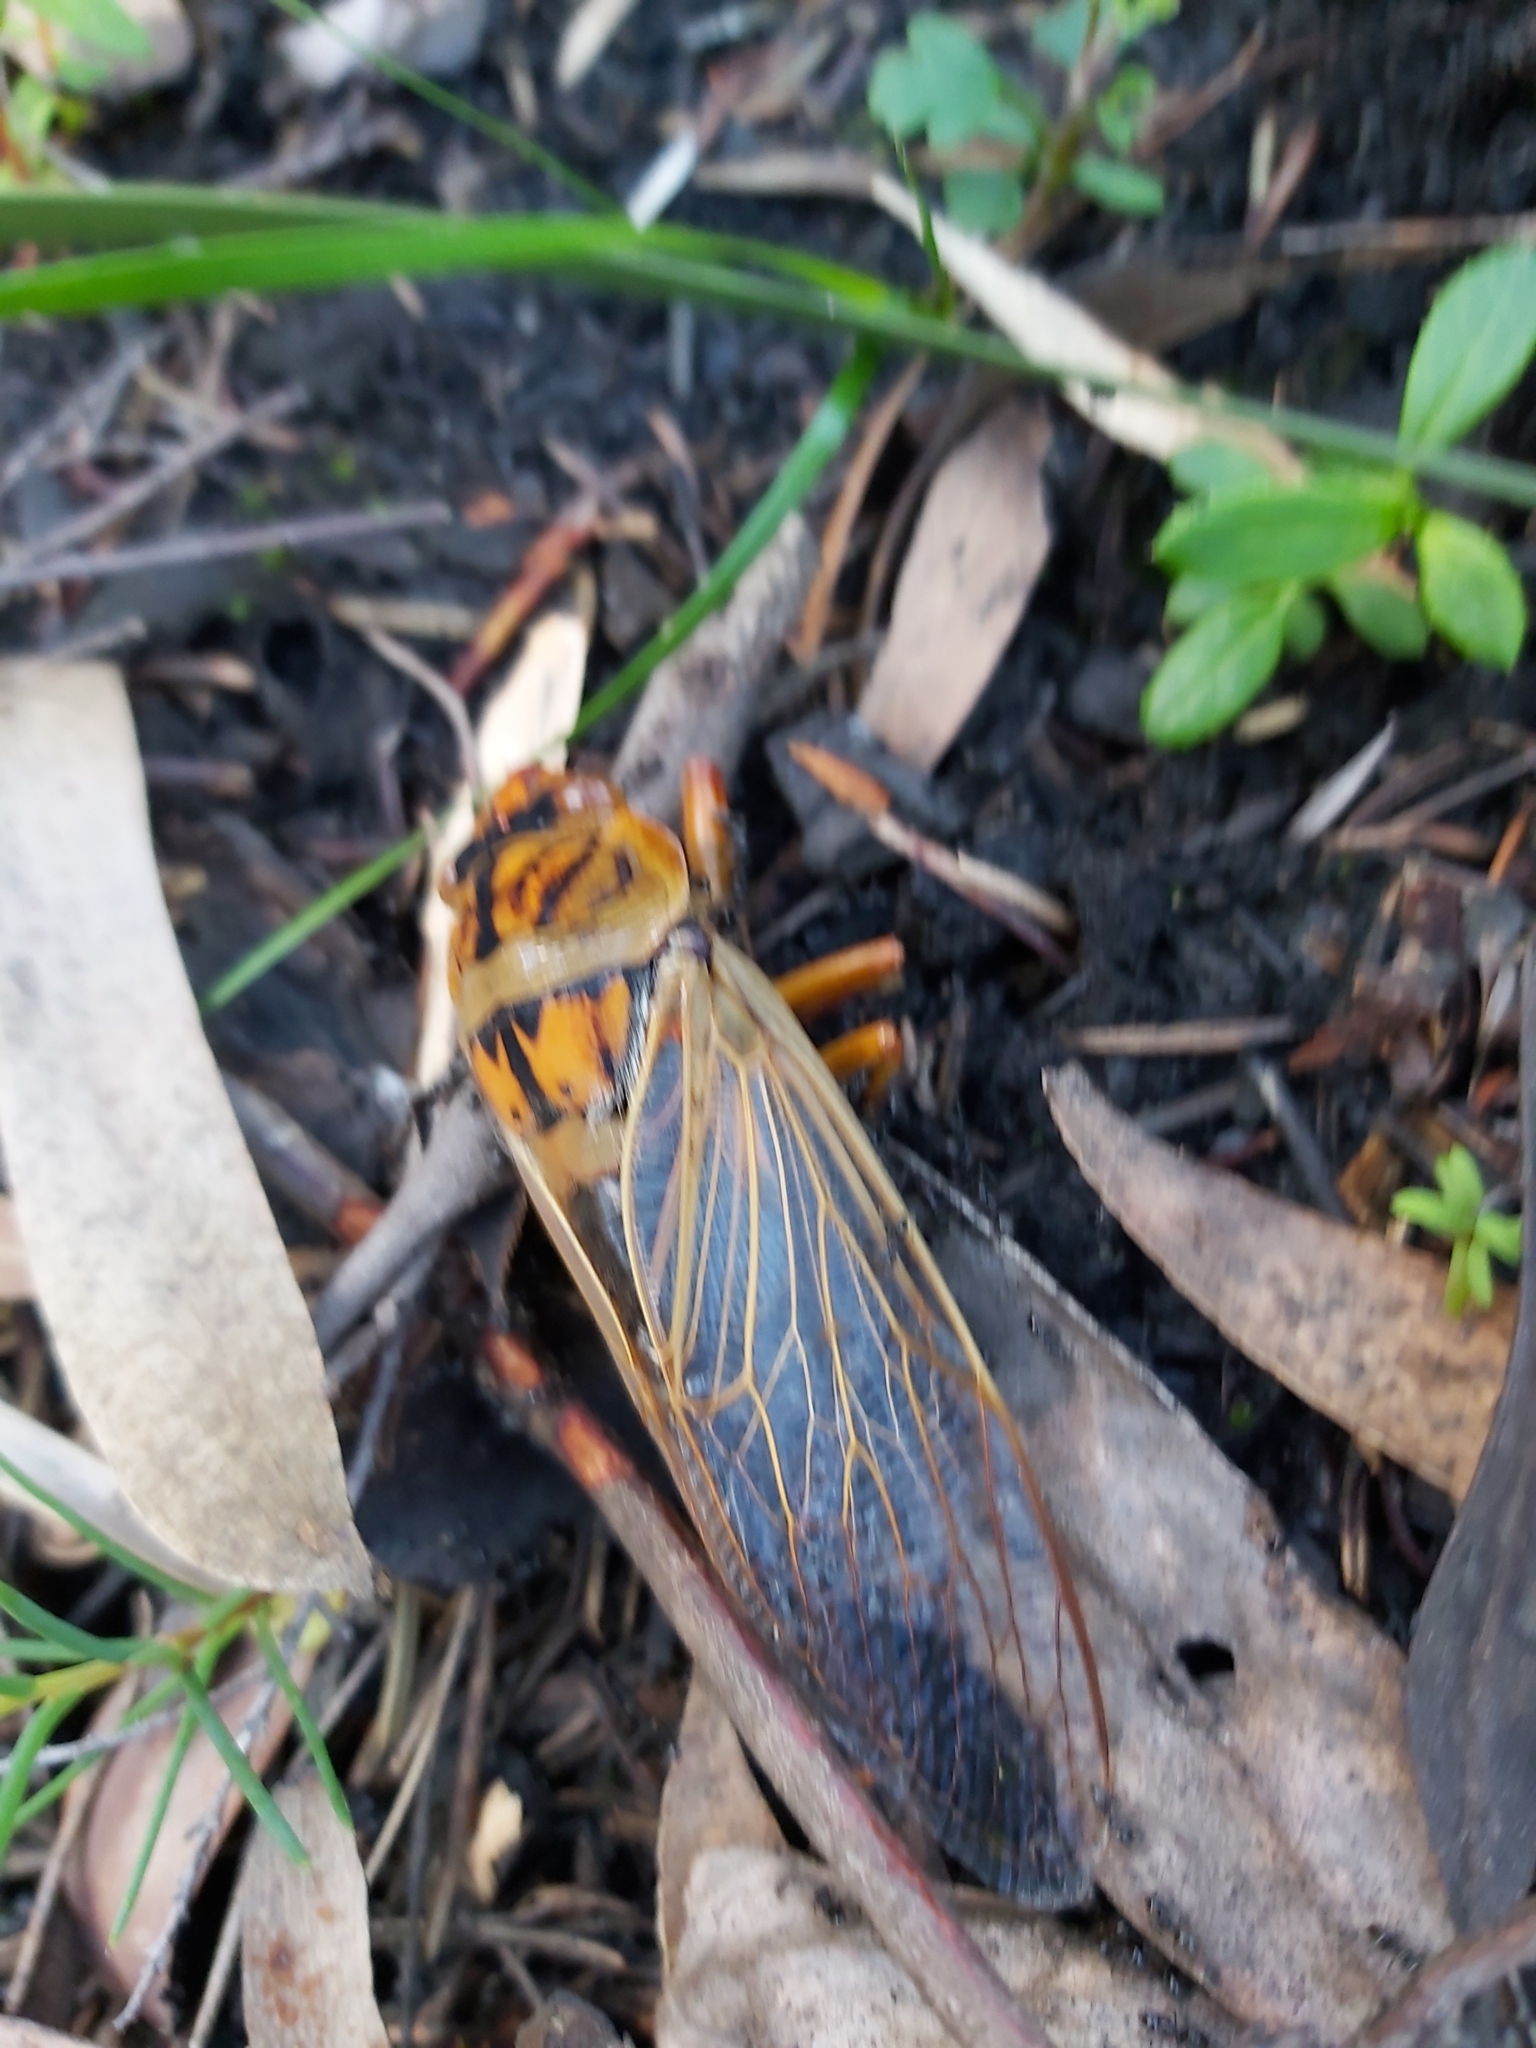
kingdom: Animalia
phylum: Arthropoda
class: Insecta
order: Hemiptera
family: Cicadidae
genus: Cyclochila
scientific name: Cyclochila australasiae
